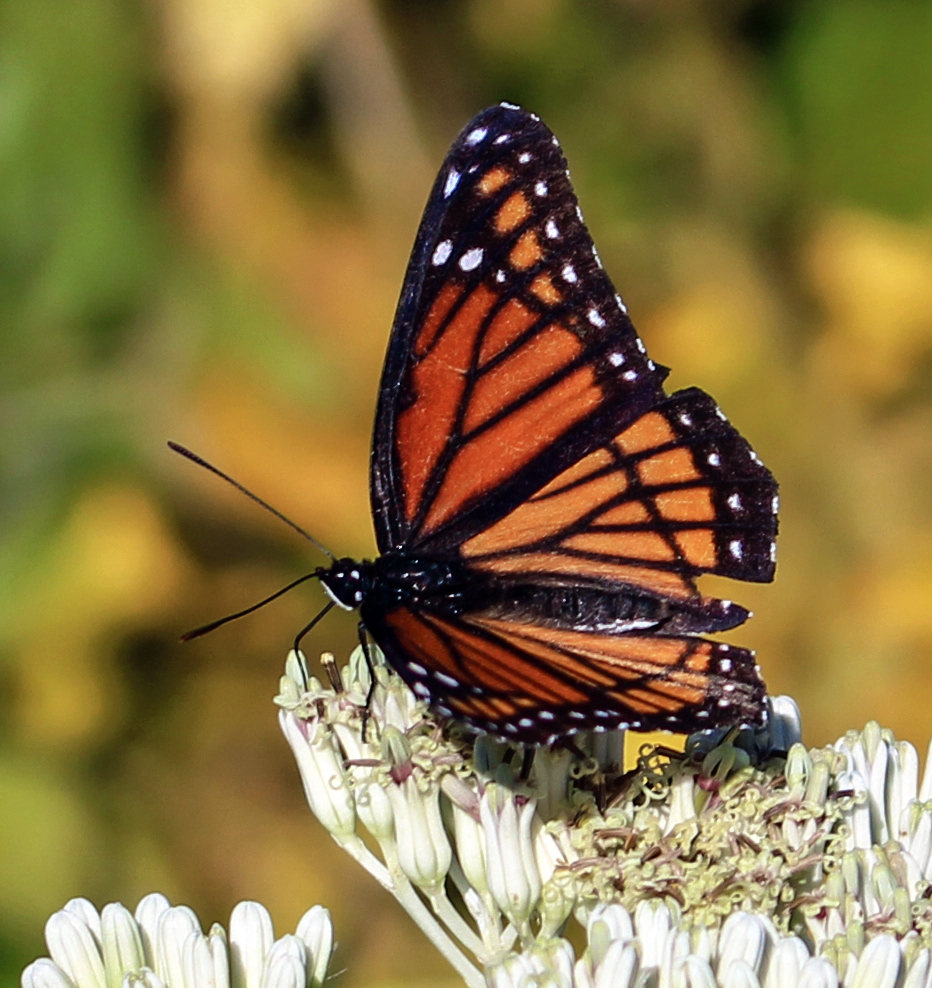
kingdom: Animalia
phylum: Arthropoda
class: Insecta
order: Lepidoptera
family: Nymphalidae
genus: Limenitis
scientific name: Limenitis archippus
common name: Viceroy
